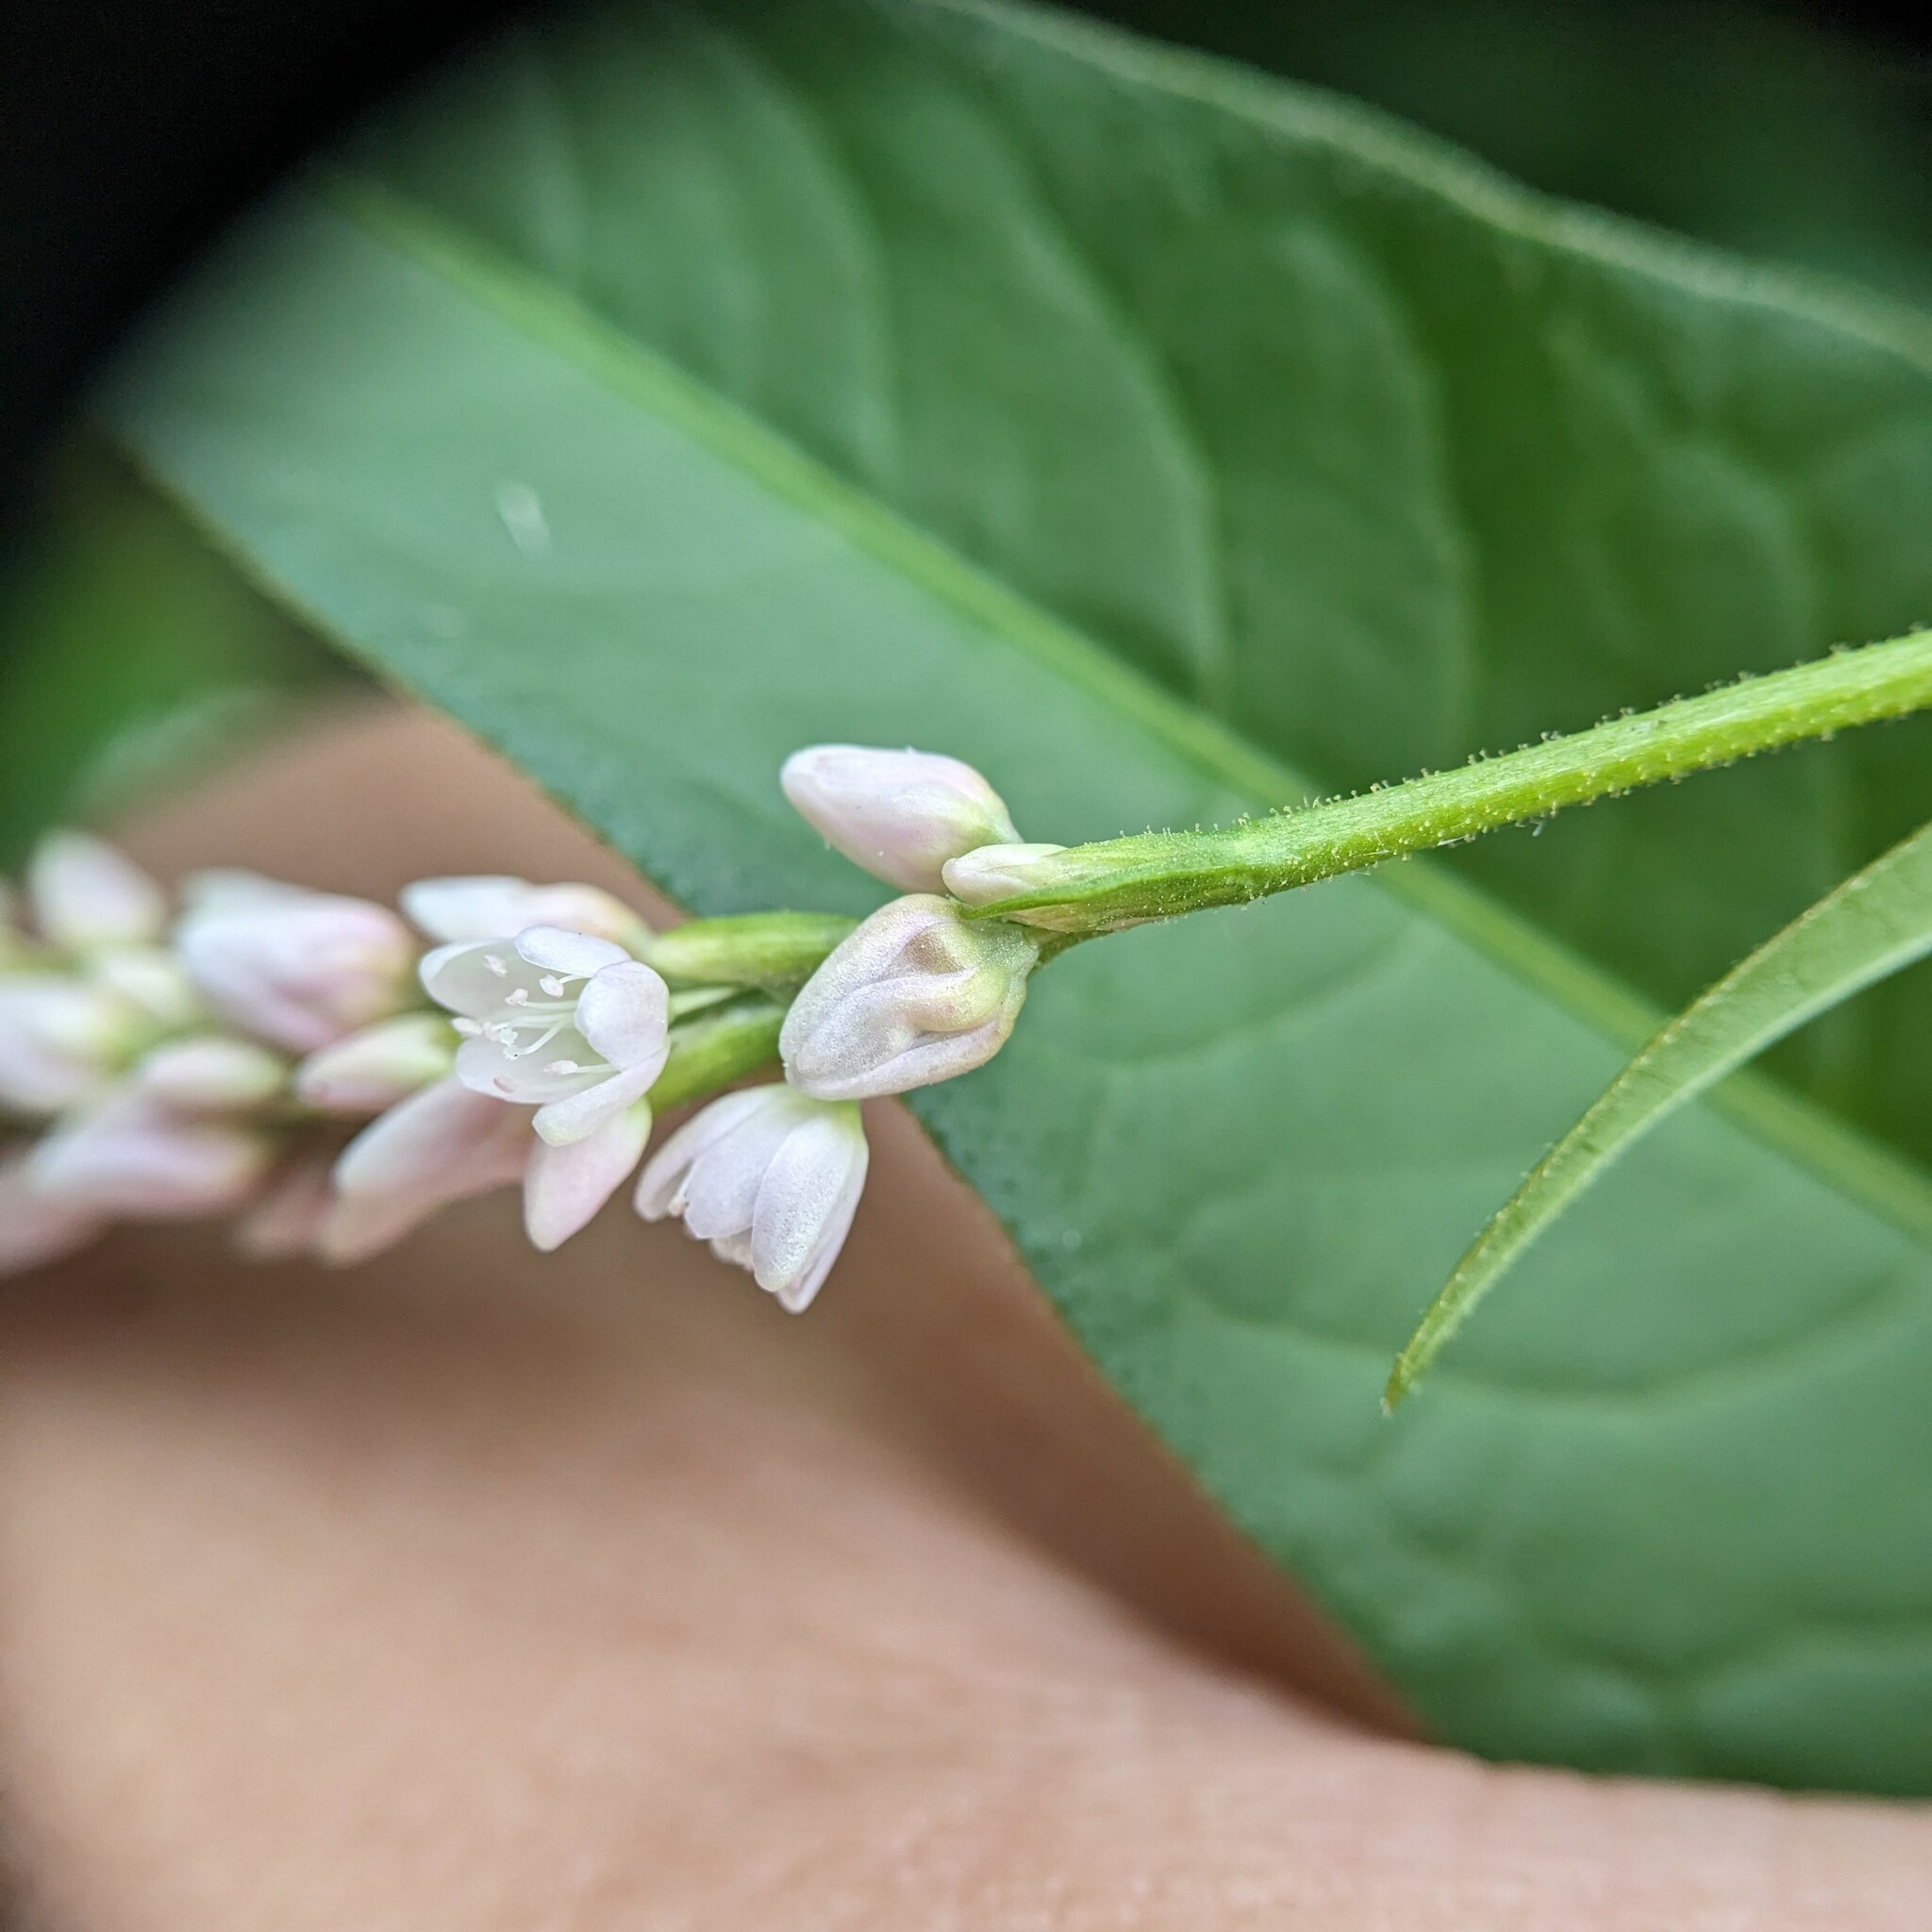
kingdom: Plantae
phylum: Tracheophyta
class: Magnoliopsida
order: Caryophyllales
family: Polygonaceae
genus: Persicaria
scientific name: Persicaria pensylvanica
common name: Pinkweed
